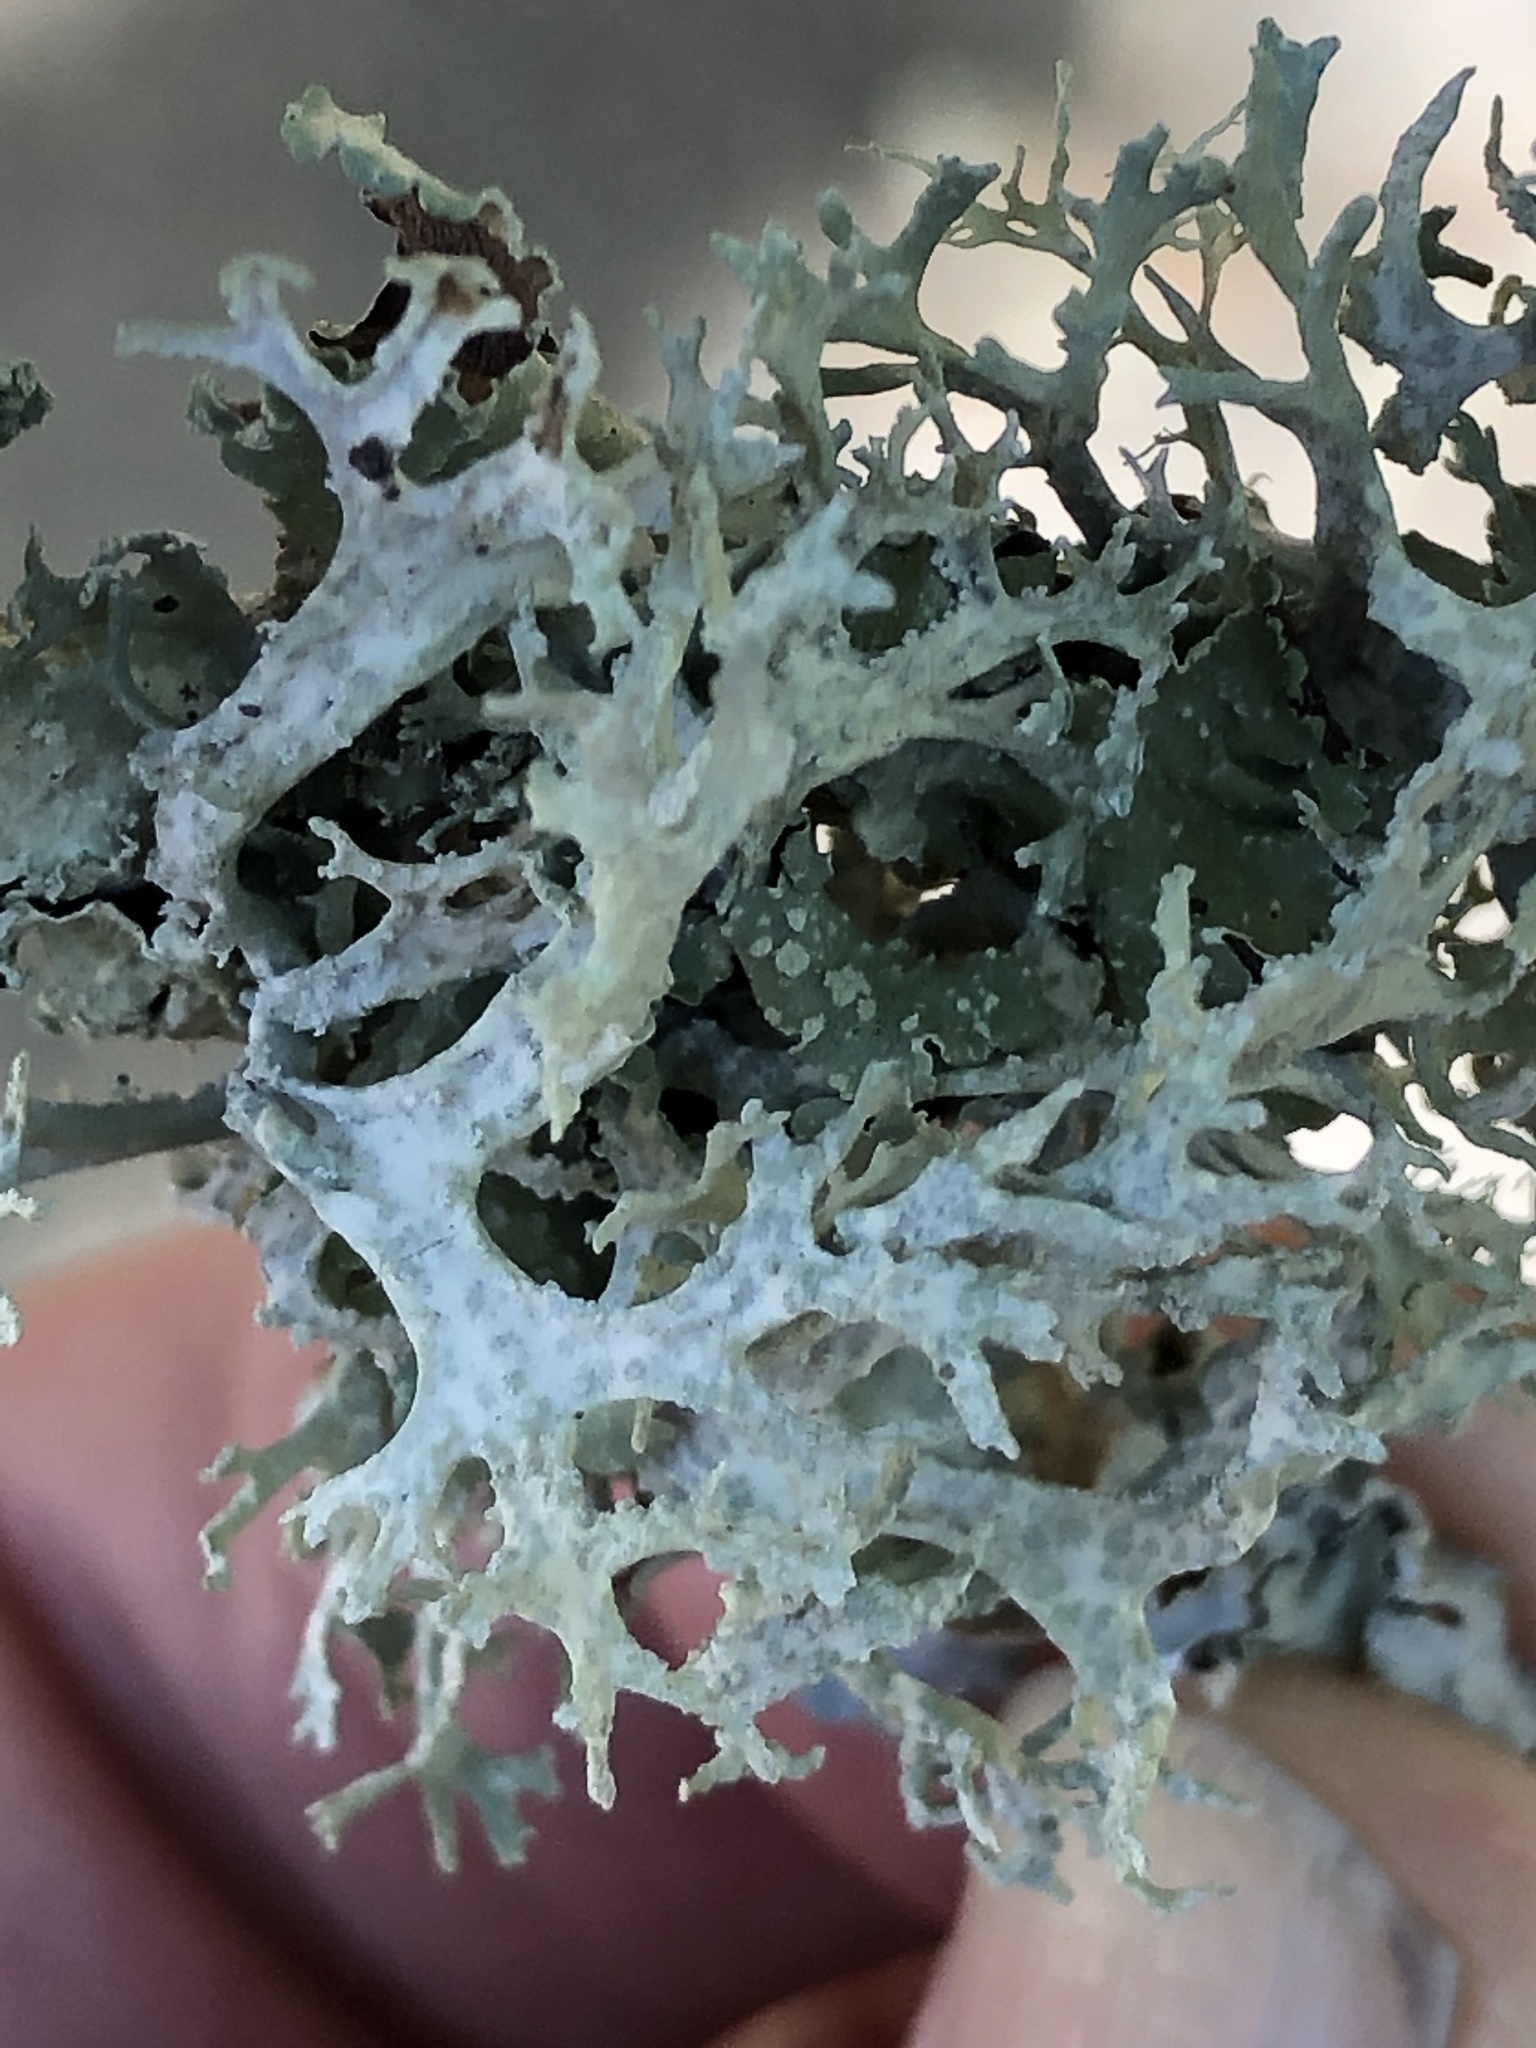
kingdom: Fungi
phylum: Ascomycota
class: Lecanoromycetes
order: Lecanorales
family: Parmeliaceae
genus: Evernia
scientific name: Evernia prunastri
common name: Oak moss
